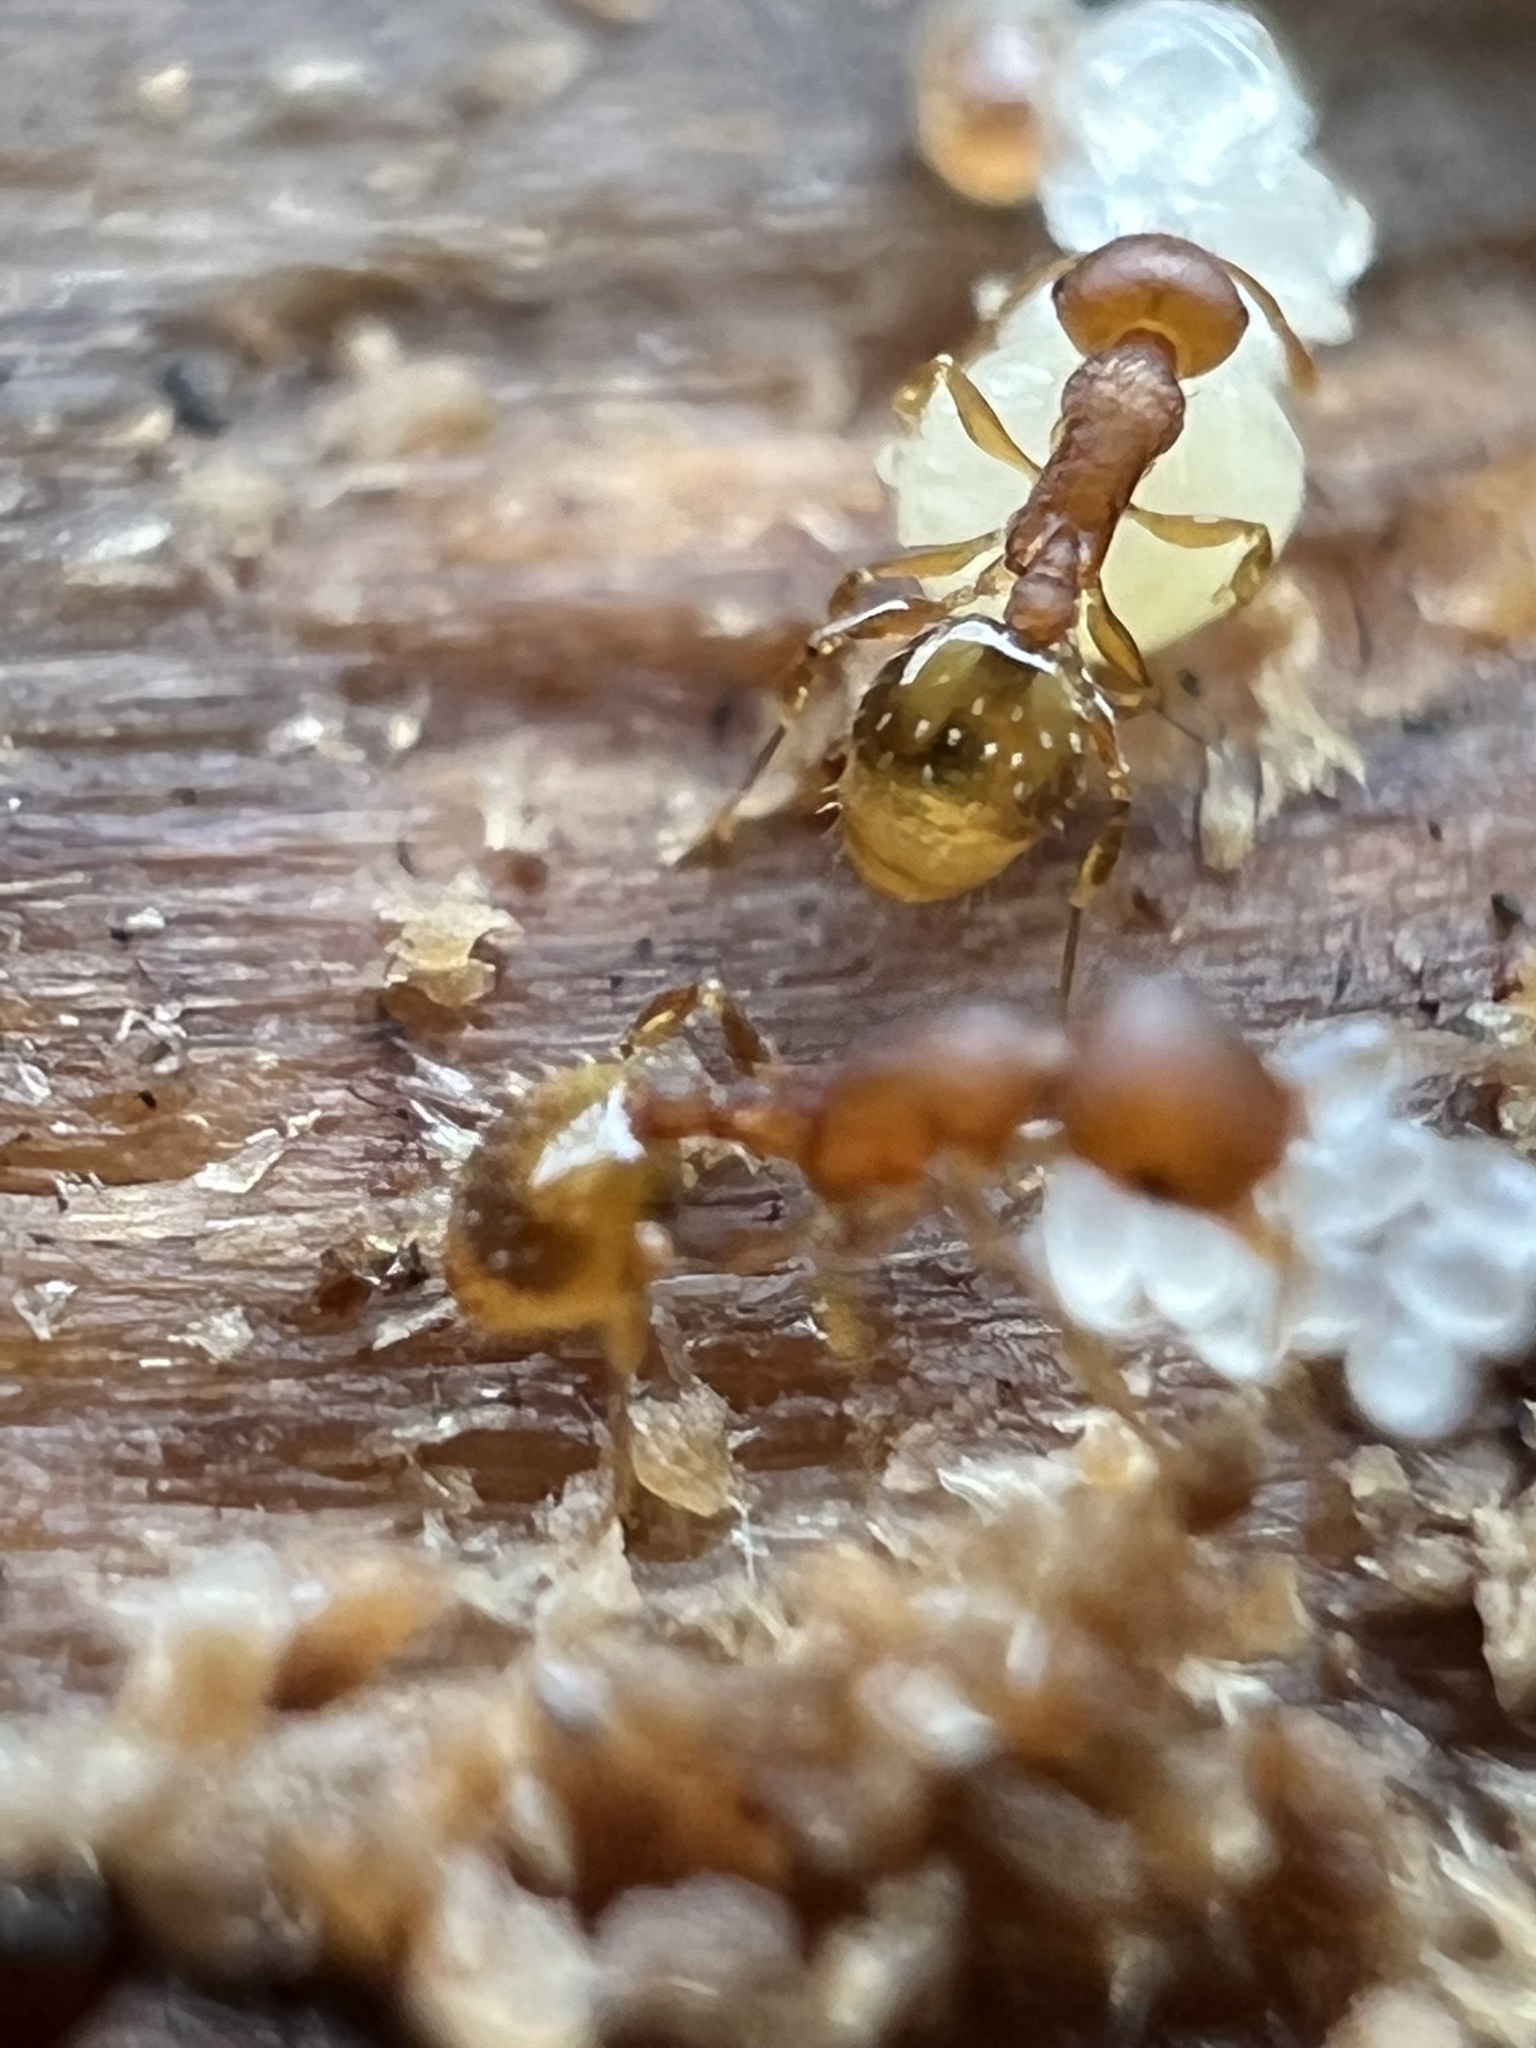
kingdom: Animalia
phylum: Arthropoda
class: Insecta
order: Hymenoptera
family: Formicidae
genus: Temnothorax
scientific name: Temnothorax curvispinosus
